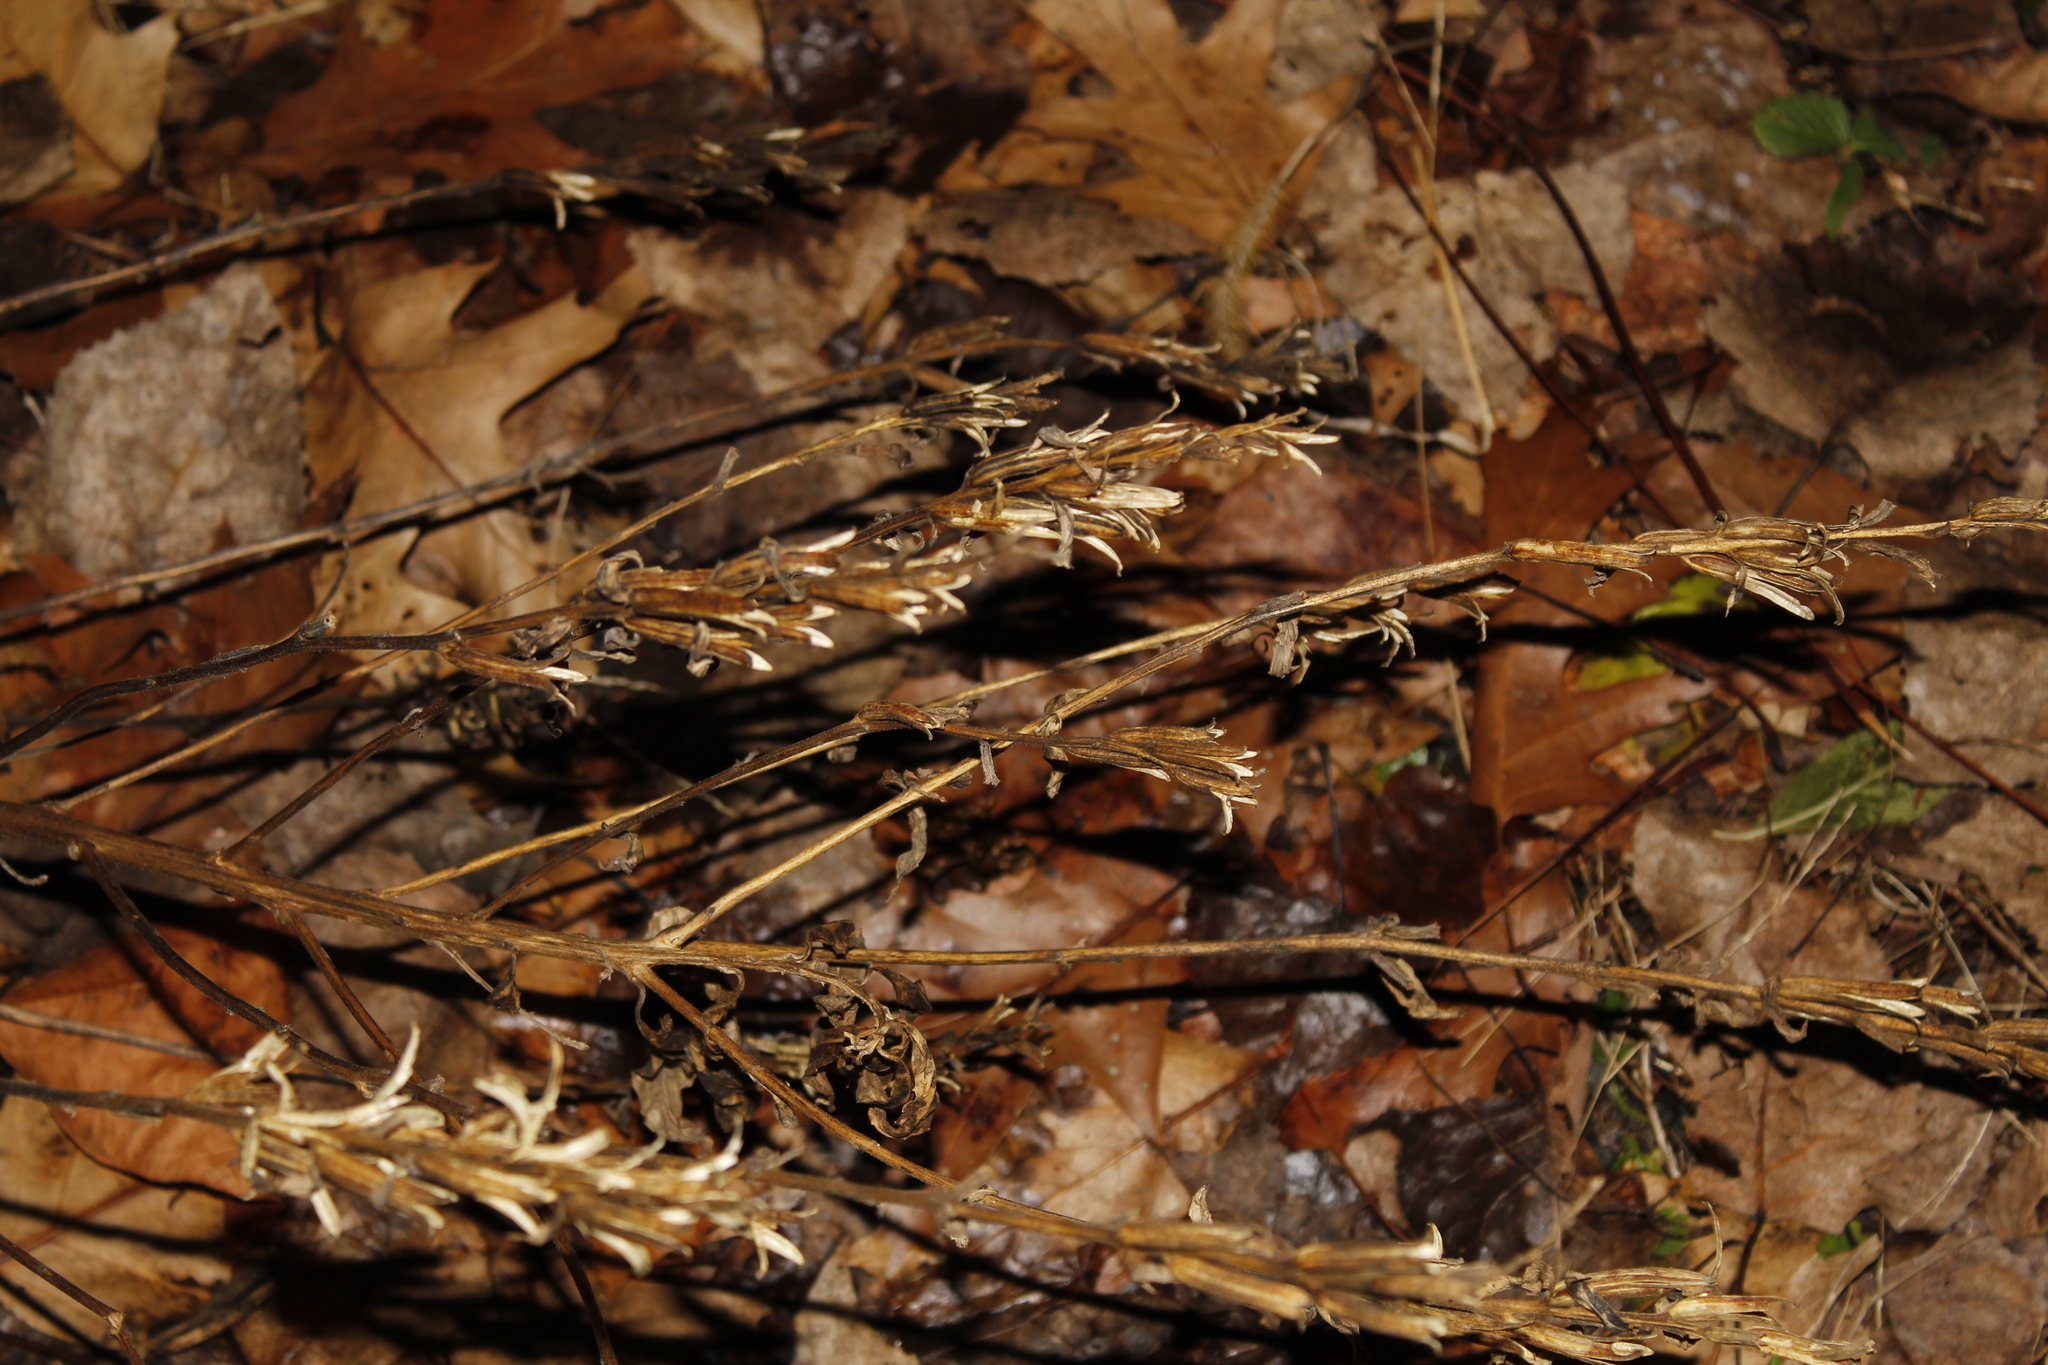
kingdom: Plantae
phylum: Tracheophyta
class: Magnoliopsida
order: Myrtales
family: Onagraceae
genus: Oenothera
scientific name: Oenothera biennis
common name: Common evening-primrose
